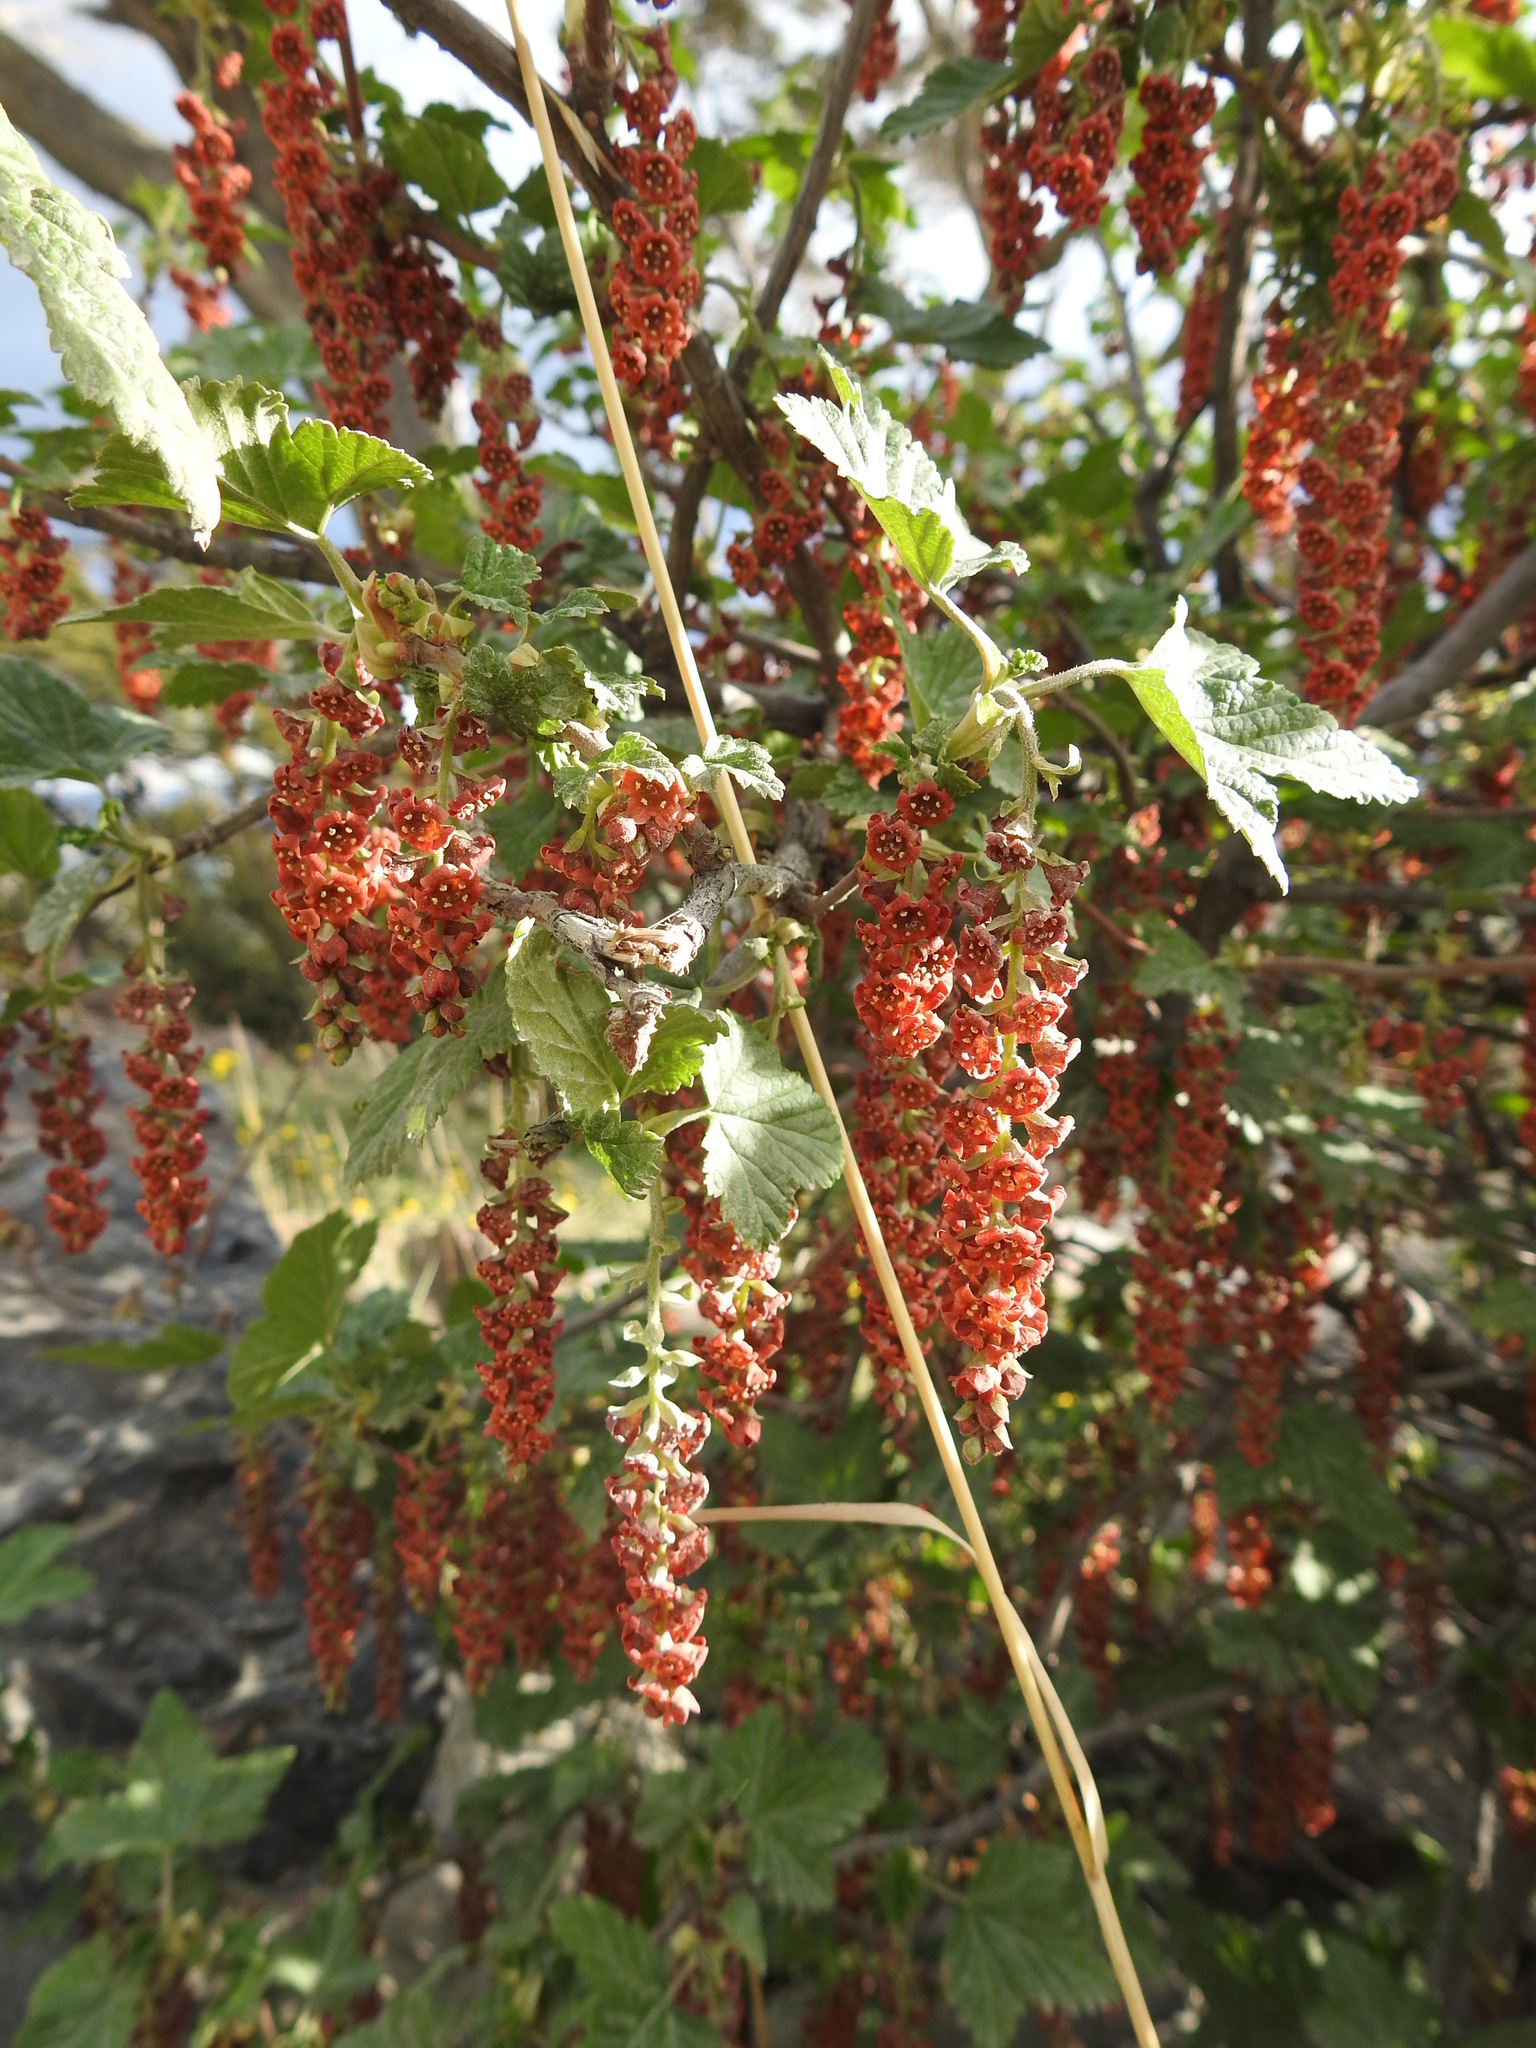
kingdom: Plantae
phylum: Tracheophyta
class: Magnoliopsida
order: Saxifragales
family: Grossulariaceae
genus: Ribes
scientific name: Ribes magellanicum
